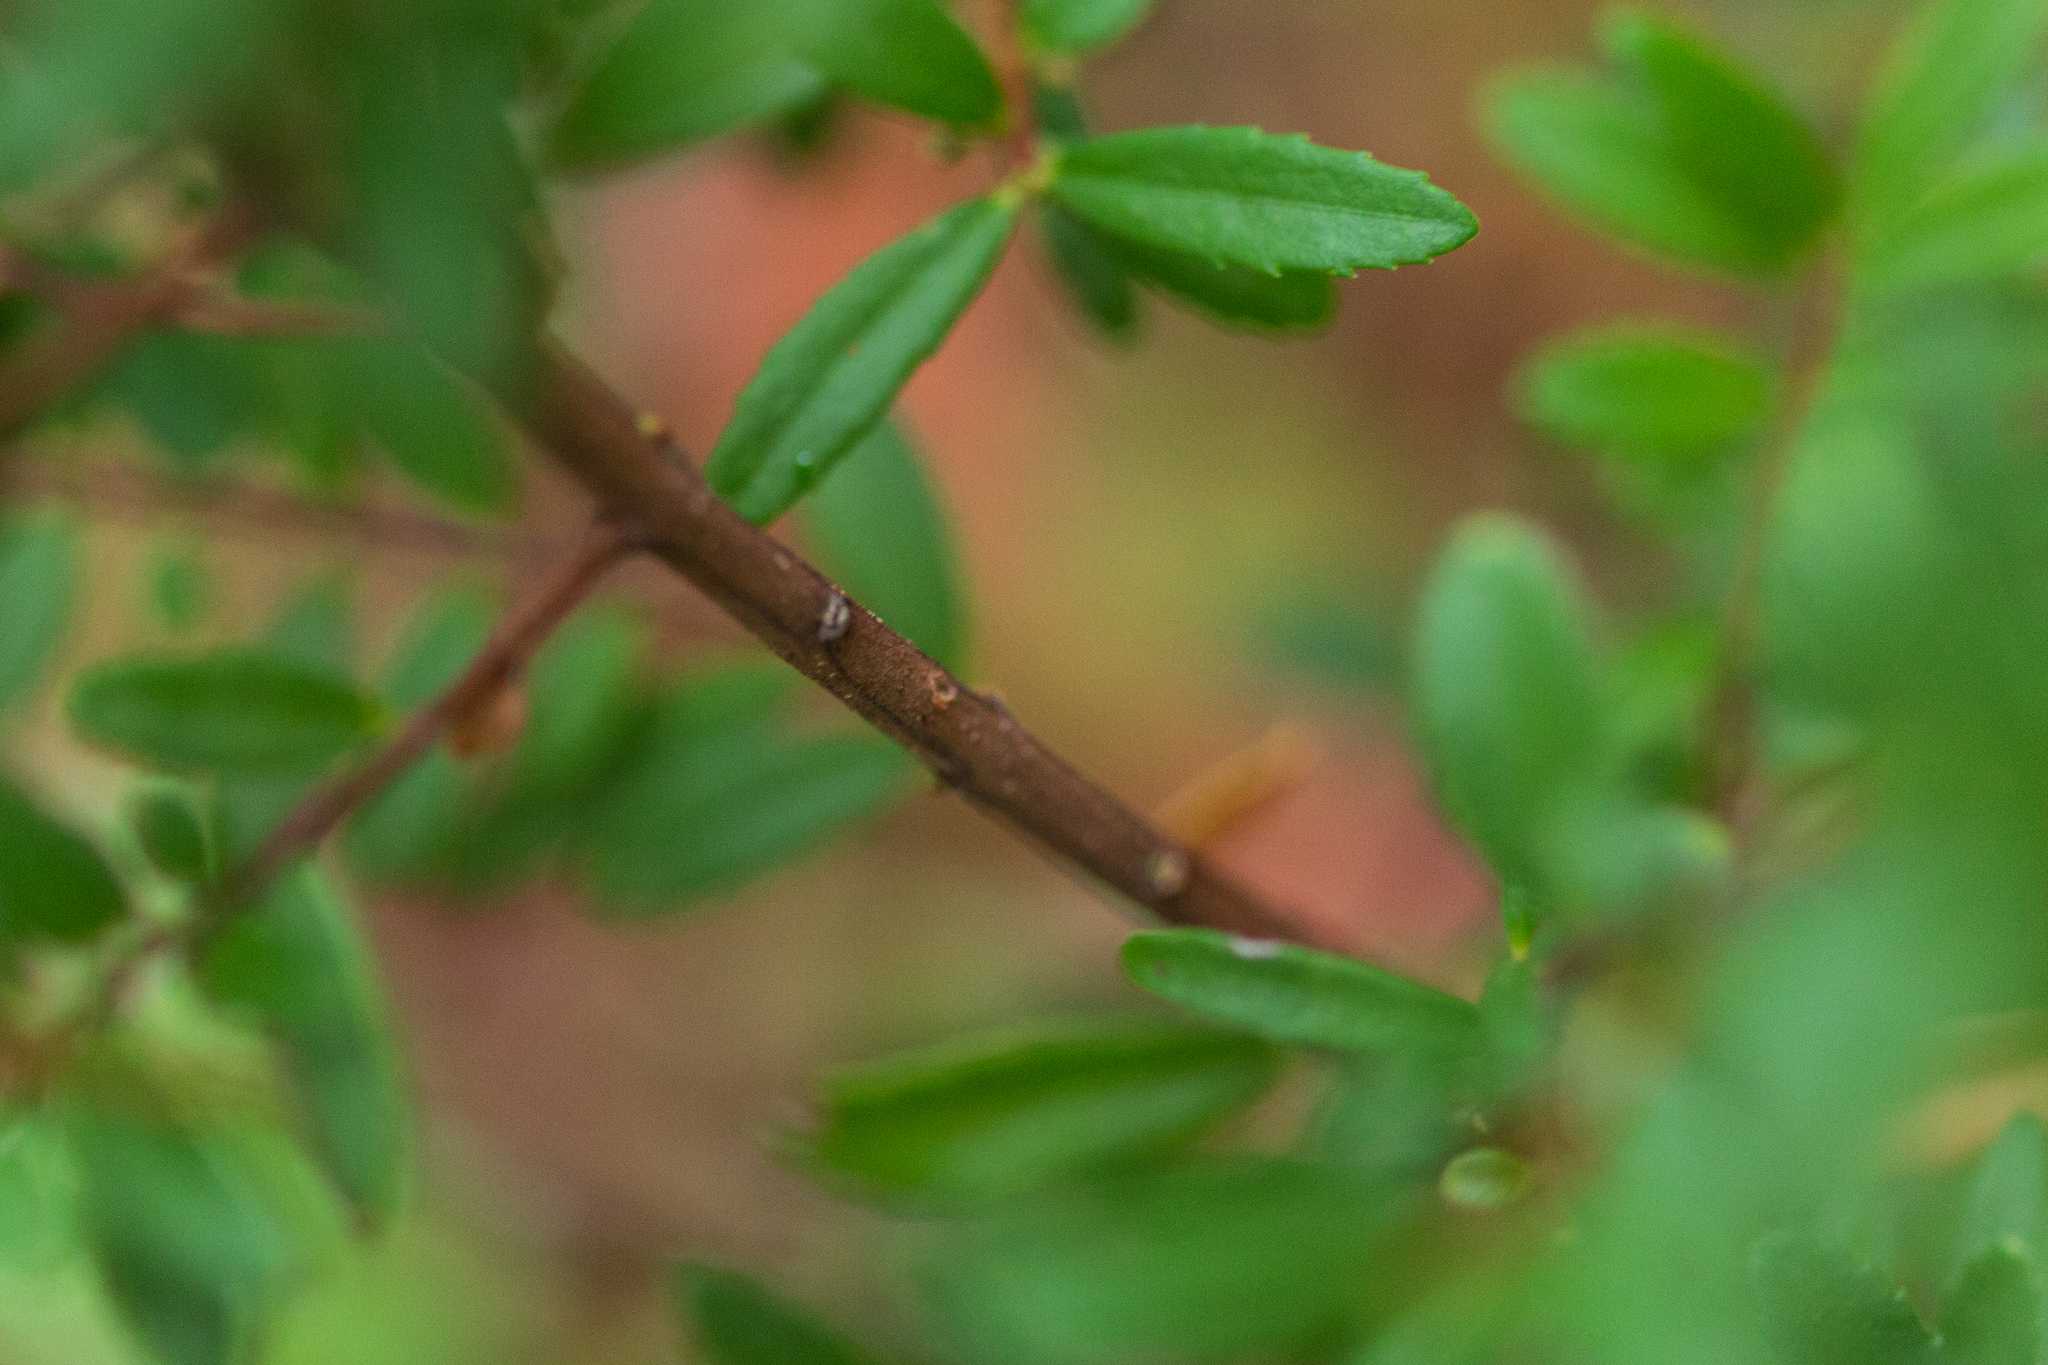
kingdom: Plantae
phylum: Tracheophyta
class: Magnoliopsida
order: Celastrales
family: Celastraceae
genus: Paxistima
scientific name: Paxistima myrsinites
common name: Mountain-lover
